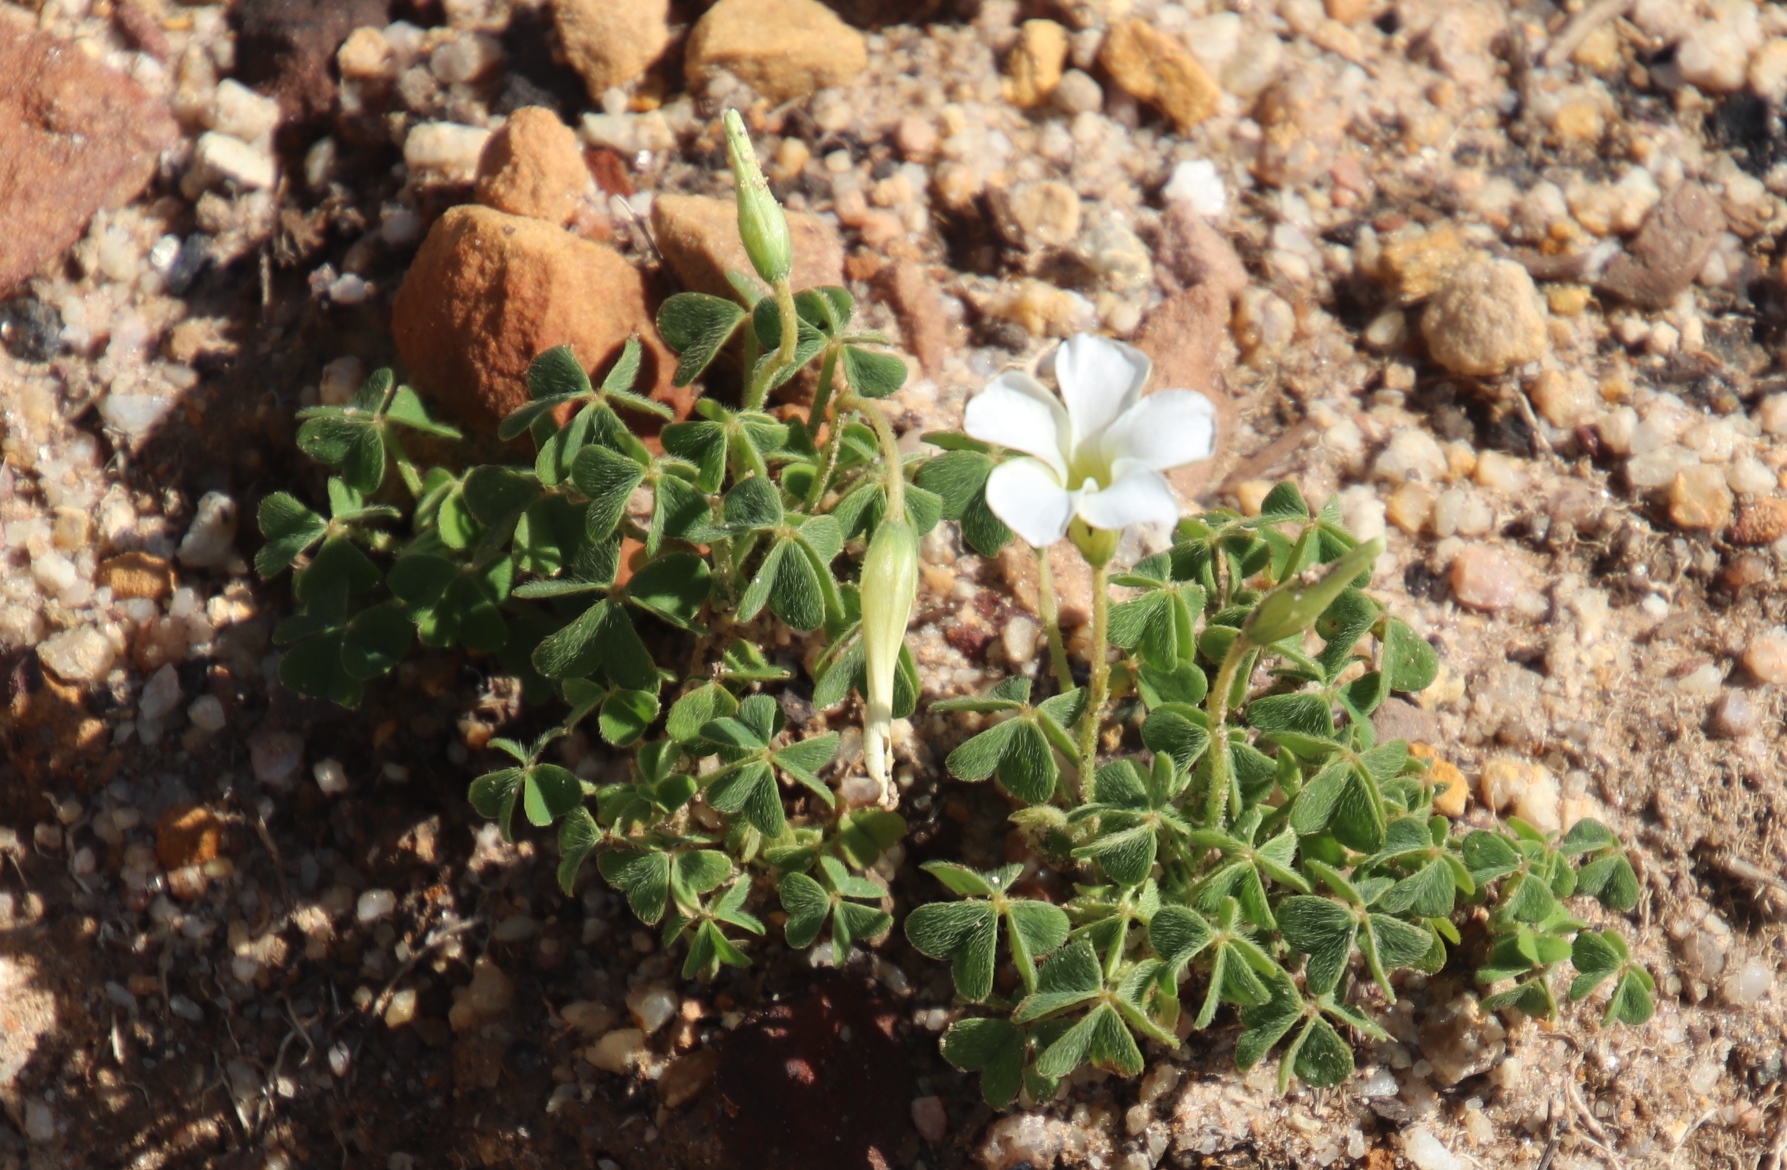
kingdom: Plantae
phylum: Tracheophyta
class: Magnoliopsida
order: Oxalidales
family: Oxalidaceae
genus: Oxalis
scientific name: Oxalis lanata
